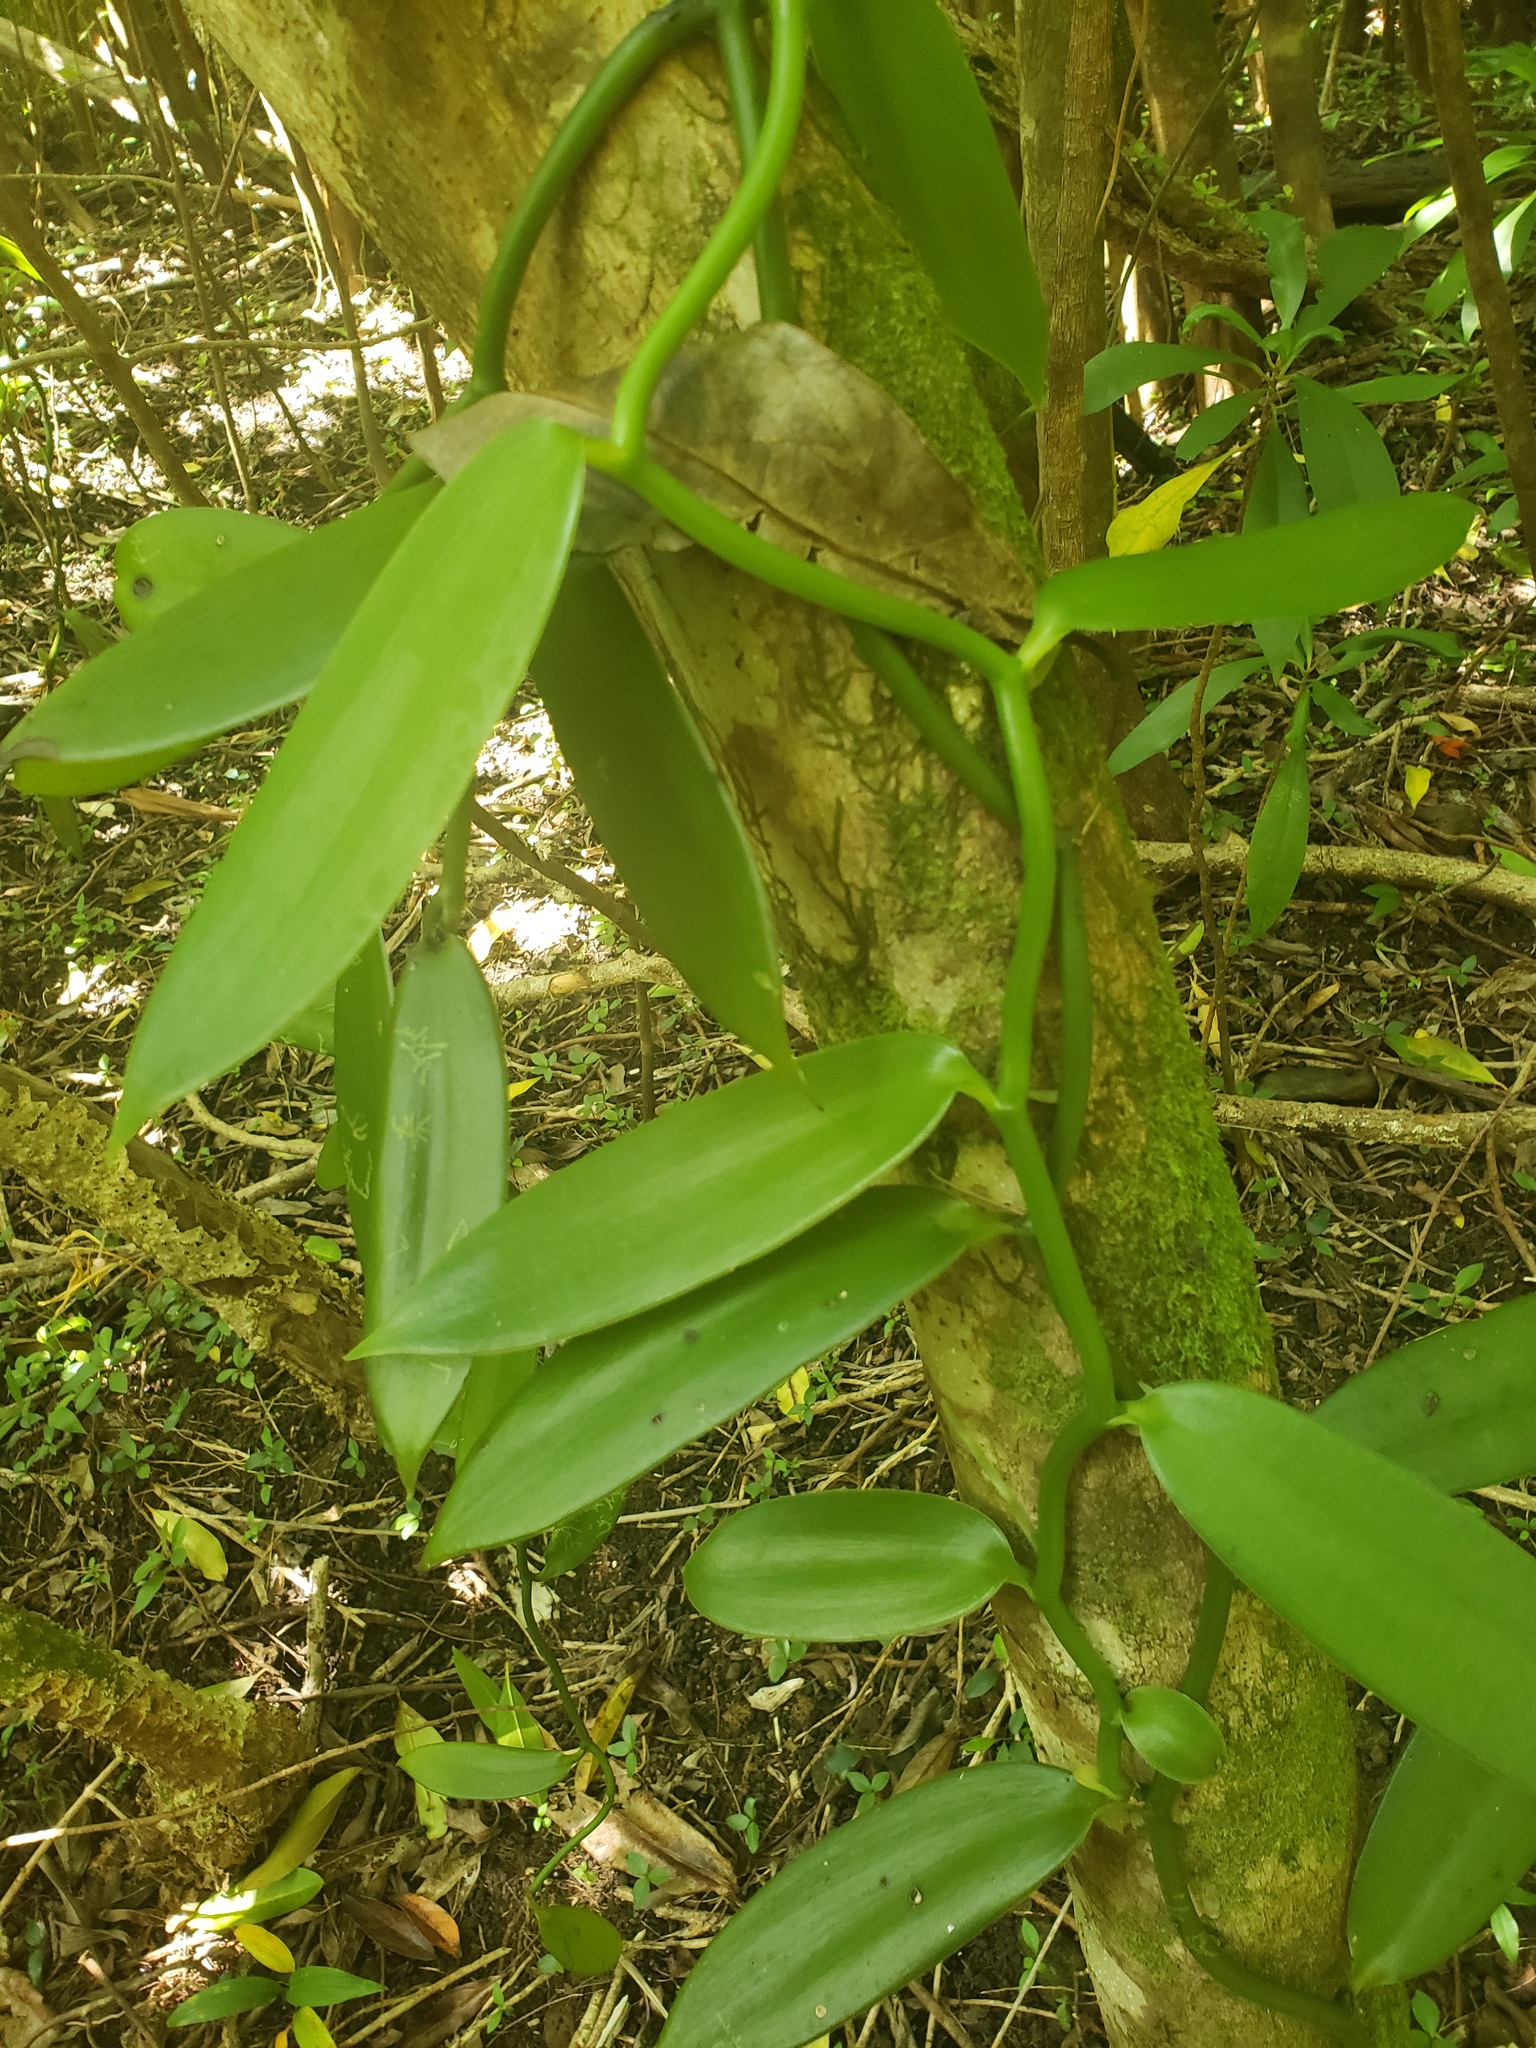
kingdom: Plantae
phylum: Tracheophyta
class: Liliopsida
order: Asparagales
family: Orchidaceae
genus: Vanilla
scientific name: Vanilla planifolia
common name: Vanilla
